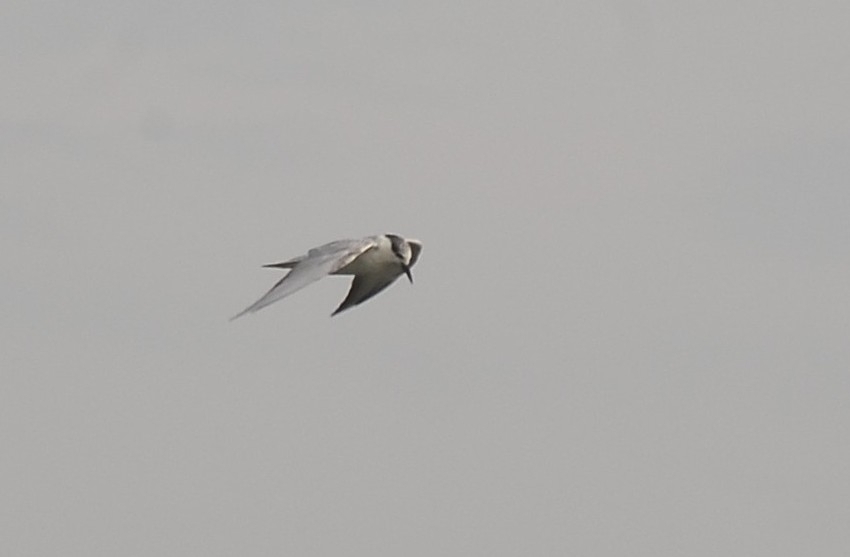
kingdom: Animalia
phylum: Chordata
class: Aves
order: Charadriiformes
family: Laridae
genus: Chlidonias
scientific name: Chlidonias hybrida
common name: Whiskered tern
